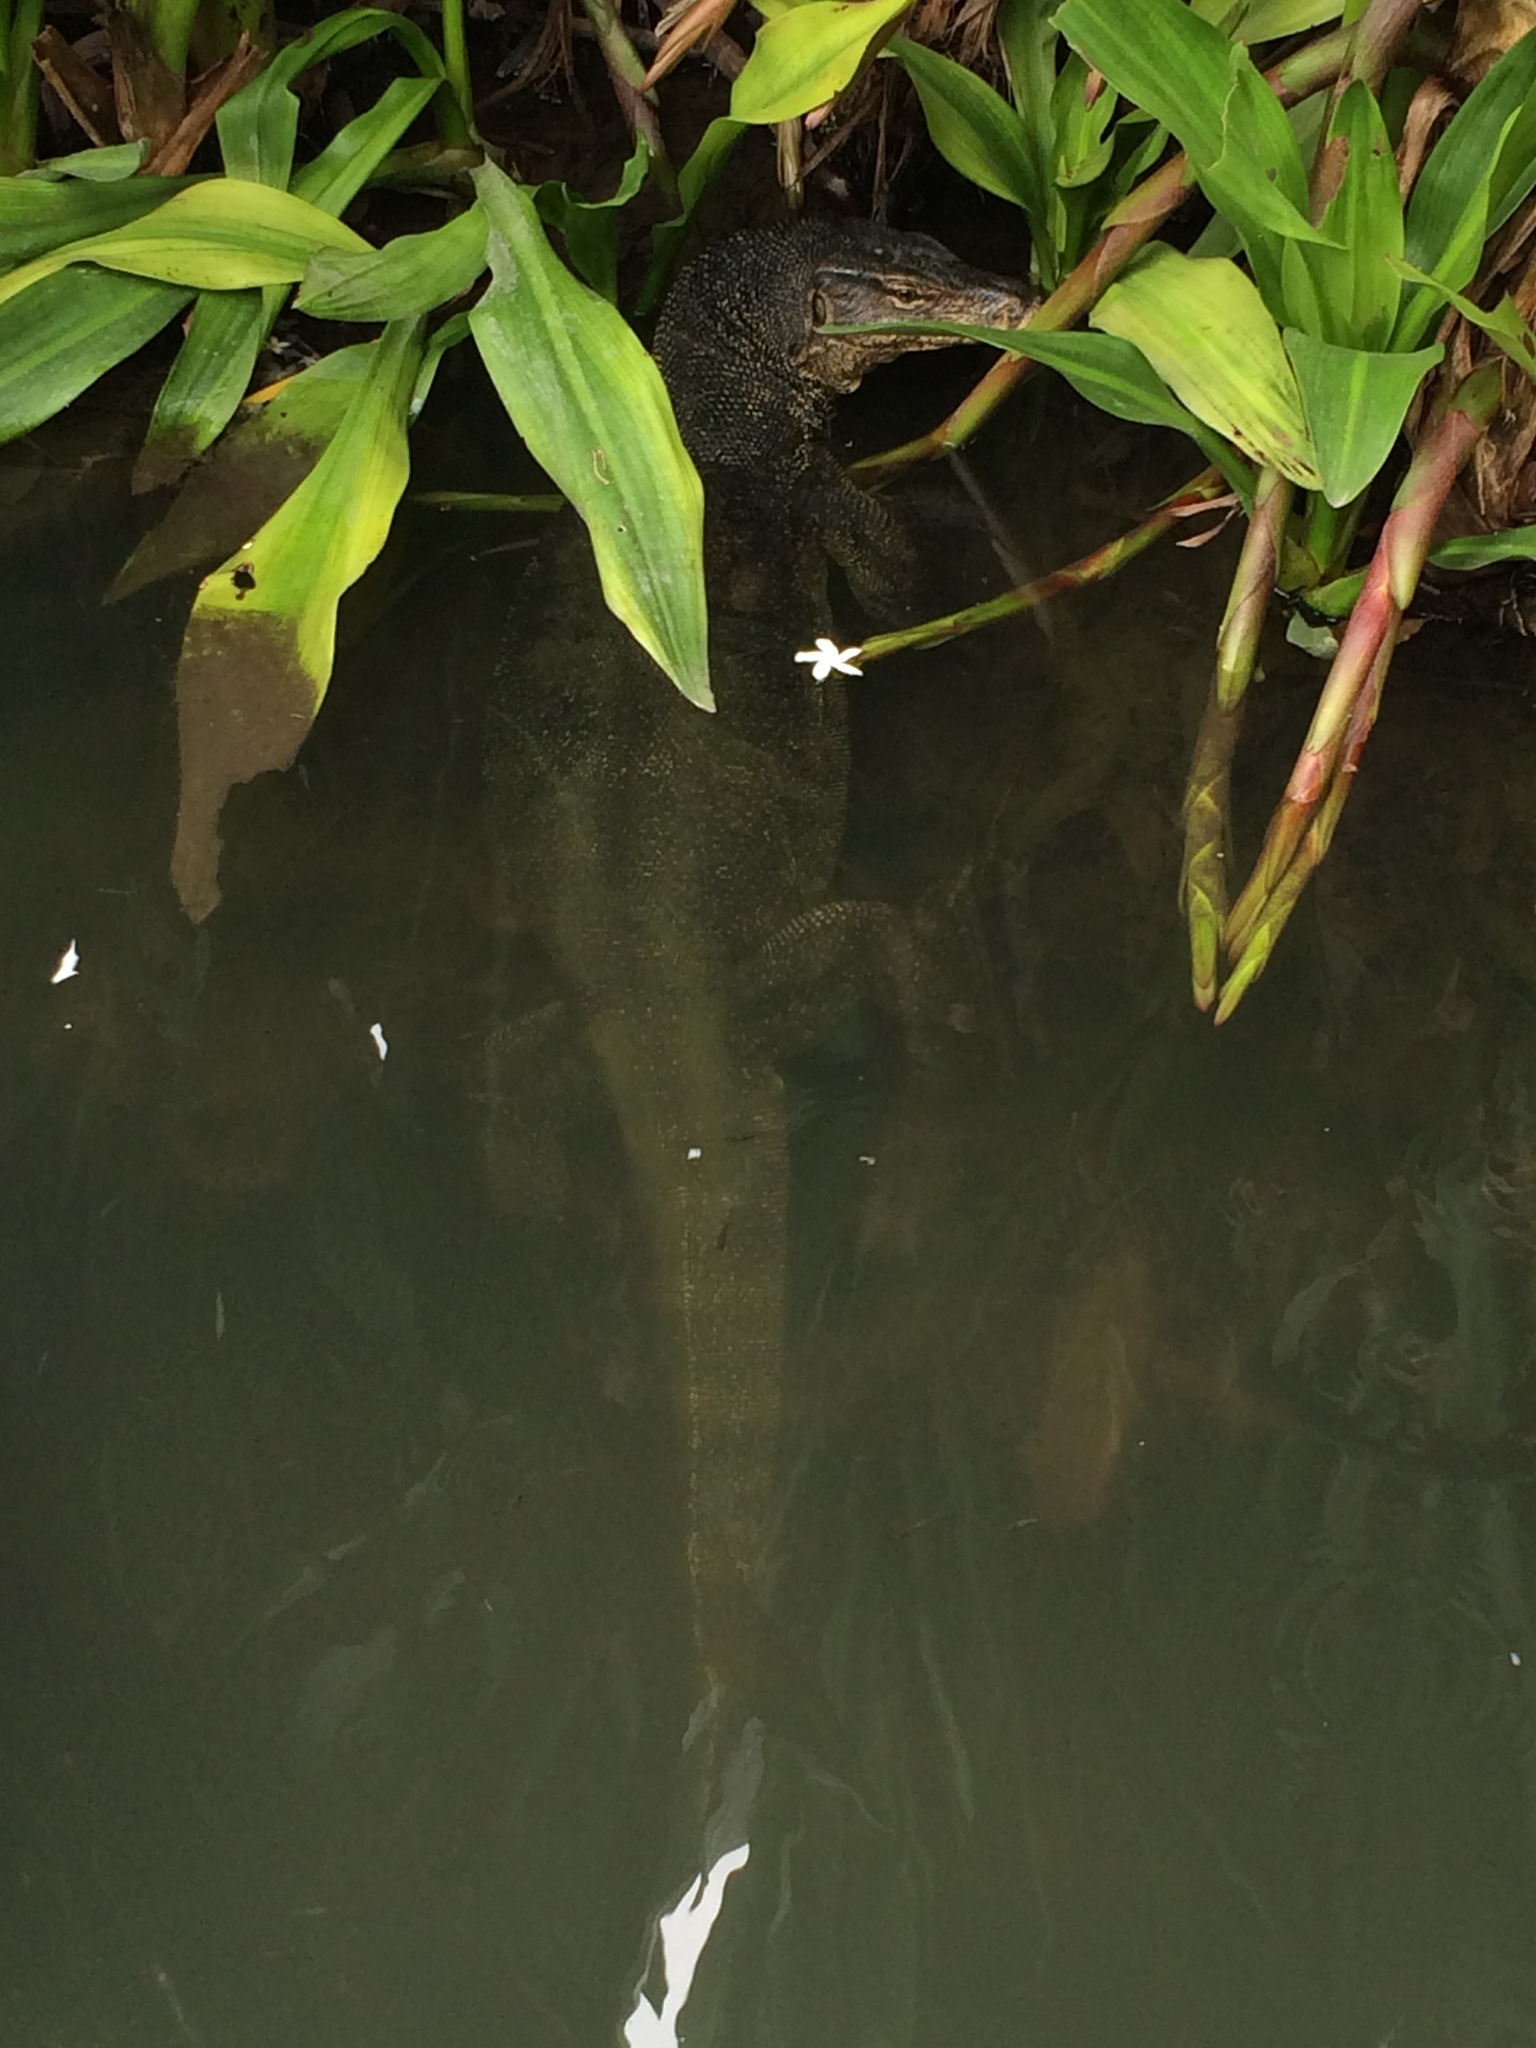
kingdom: Animalia
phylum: Chordata
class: Squamata
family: Varanidae
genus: Varanus
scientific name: Varanus salvator
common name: Common water monitor
